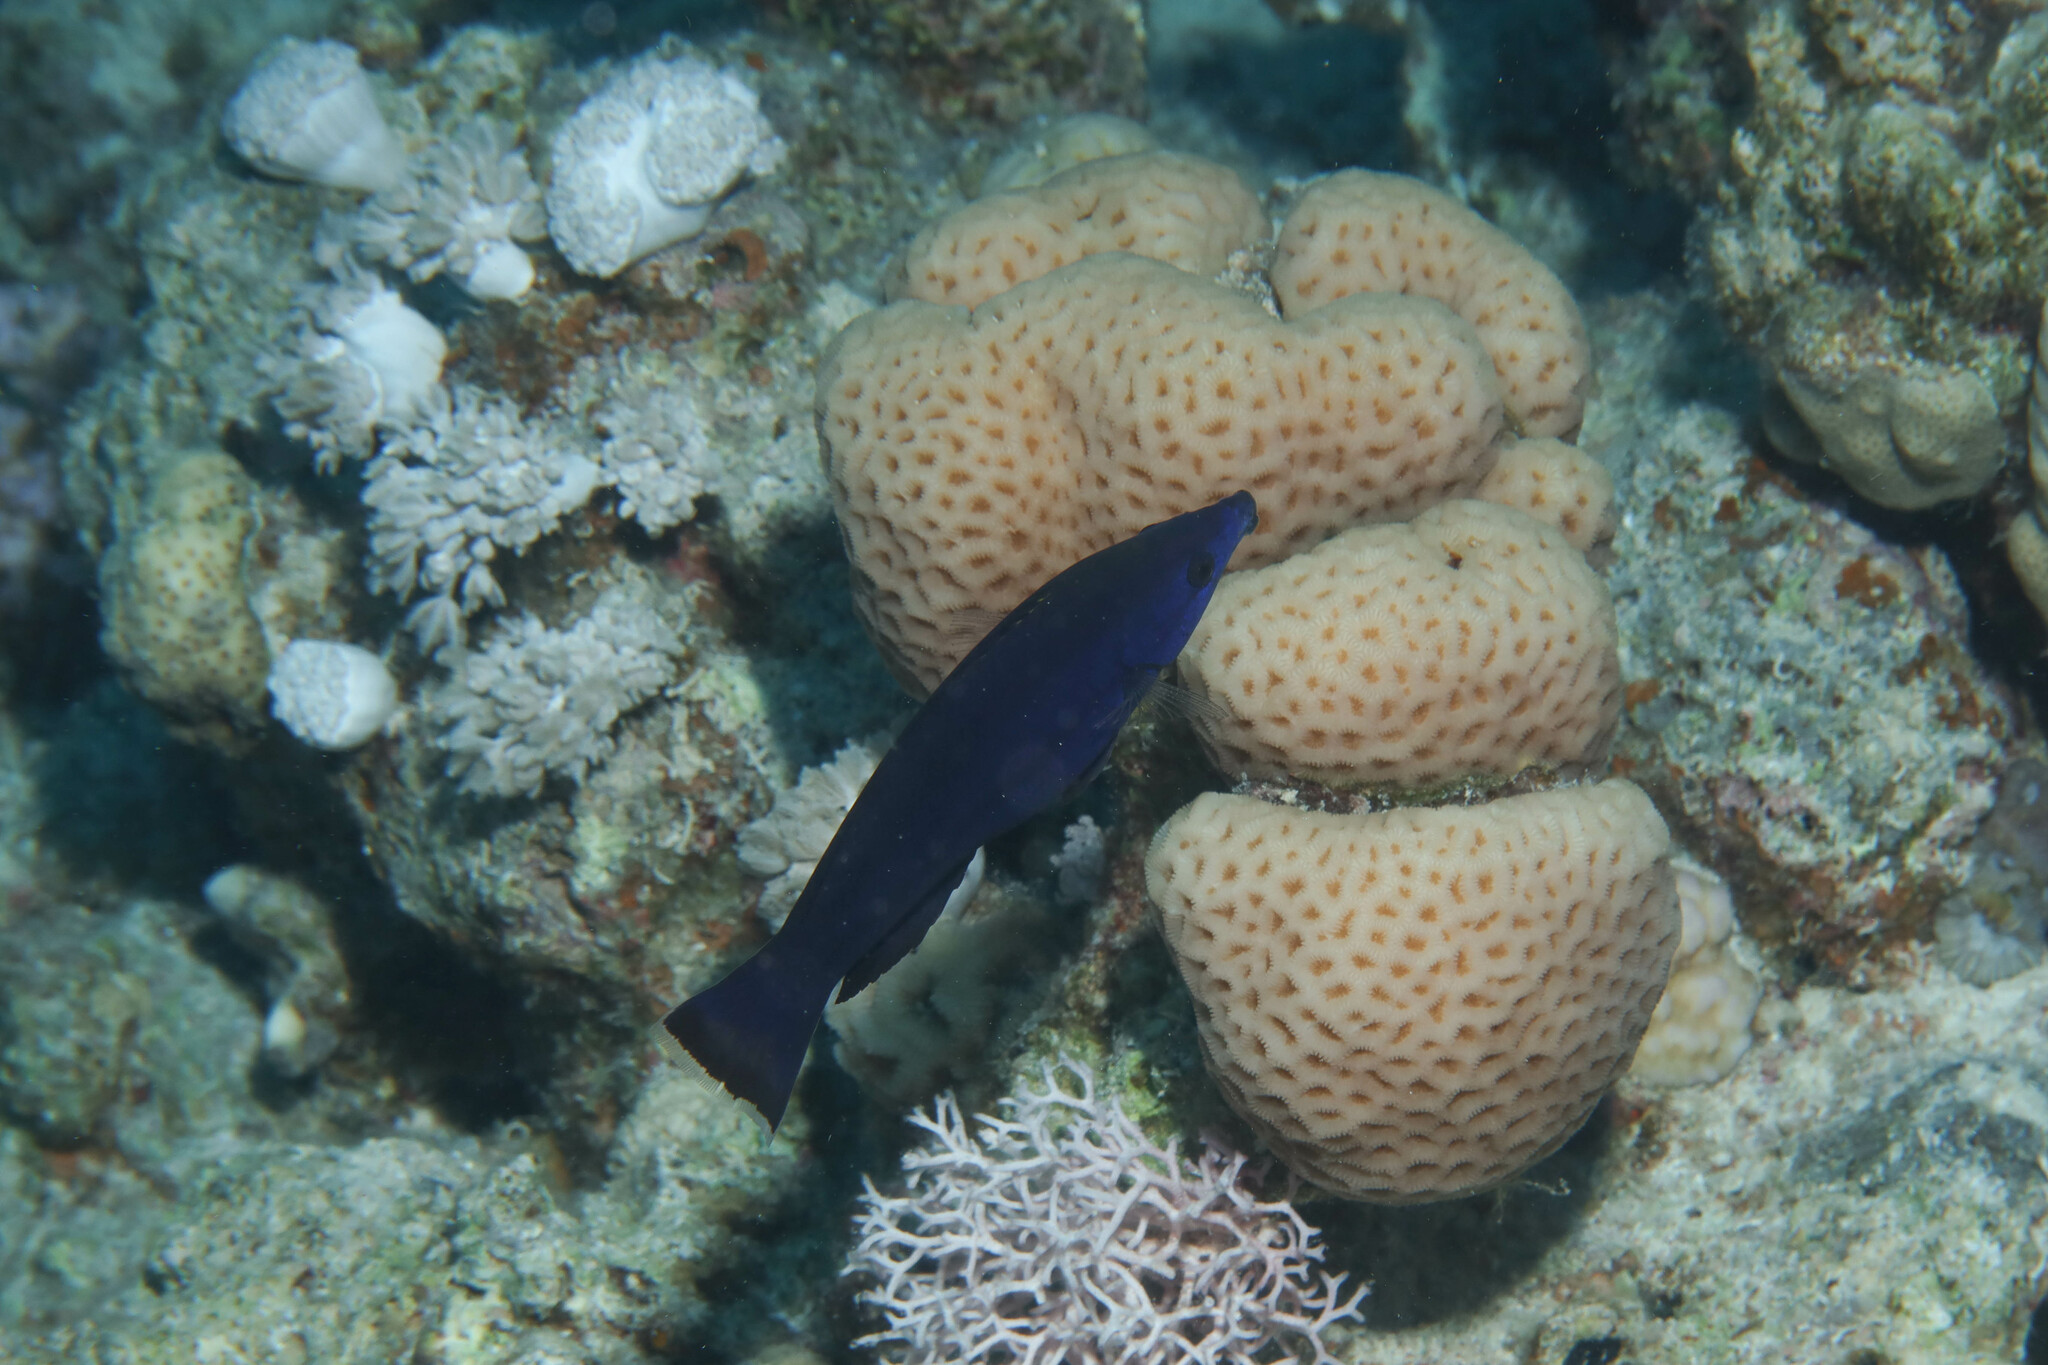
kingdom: Animalia
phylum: Chordata
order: Perciformes
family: Labridae
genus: Larabicus
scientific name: Larabicus quadrilineatus
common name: Fourline wrasse
